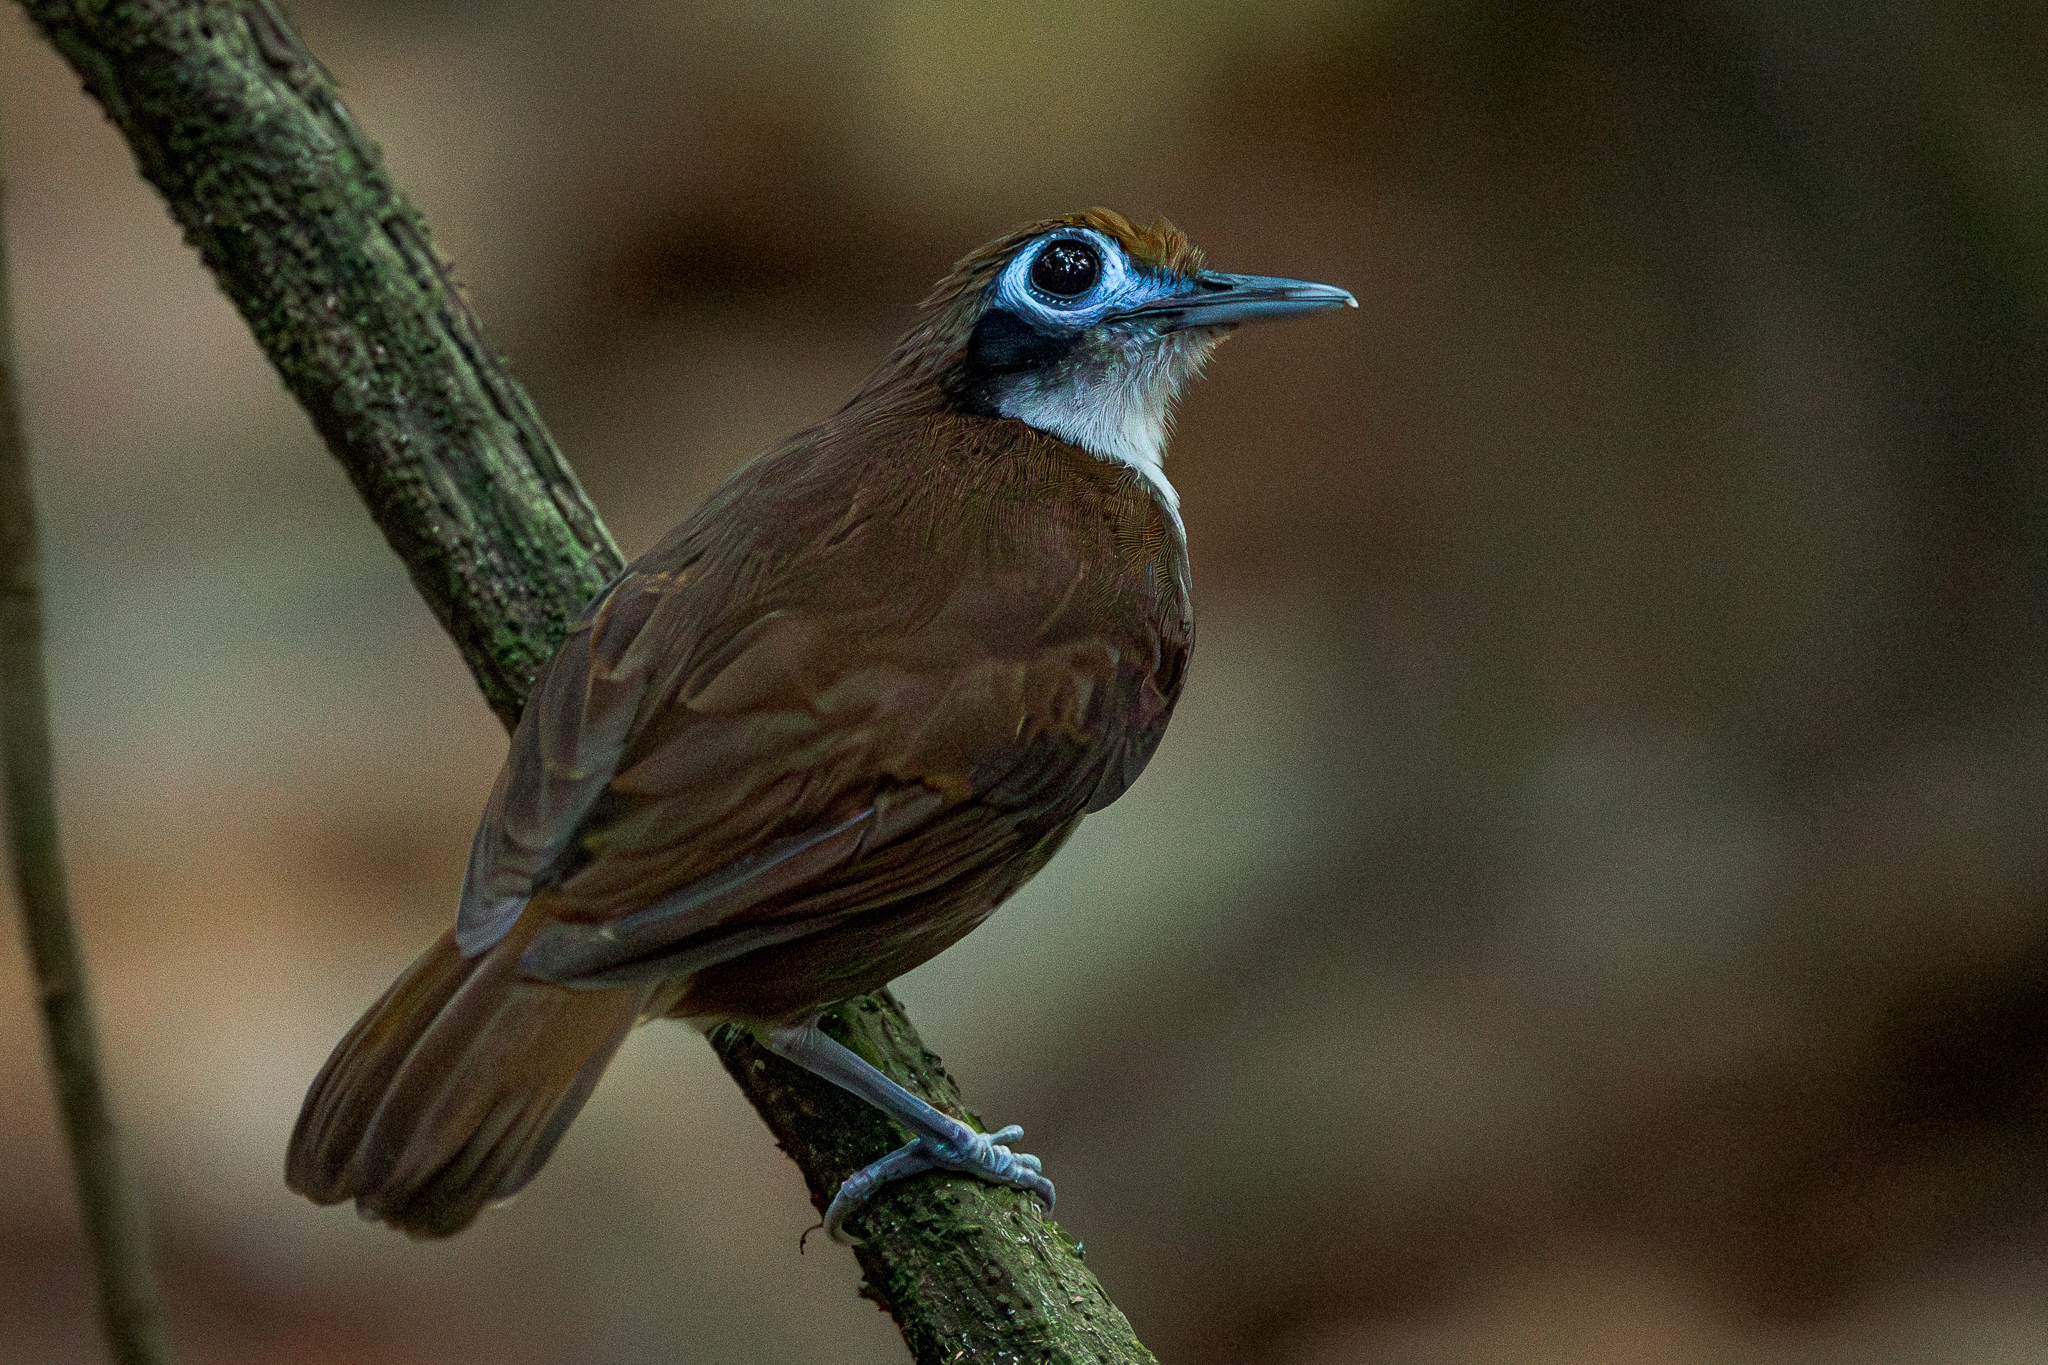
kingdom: Animalia
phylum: Chordata
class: Aves
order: Passeriformes
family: Thamnophilidae
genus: Gymnopithys
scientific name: Gymnopithys leucaspis
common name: White-cheeked antbird
